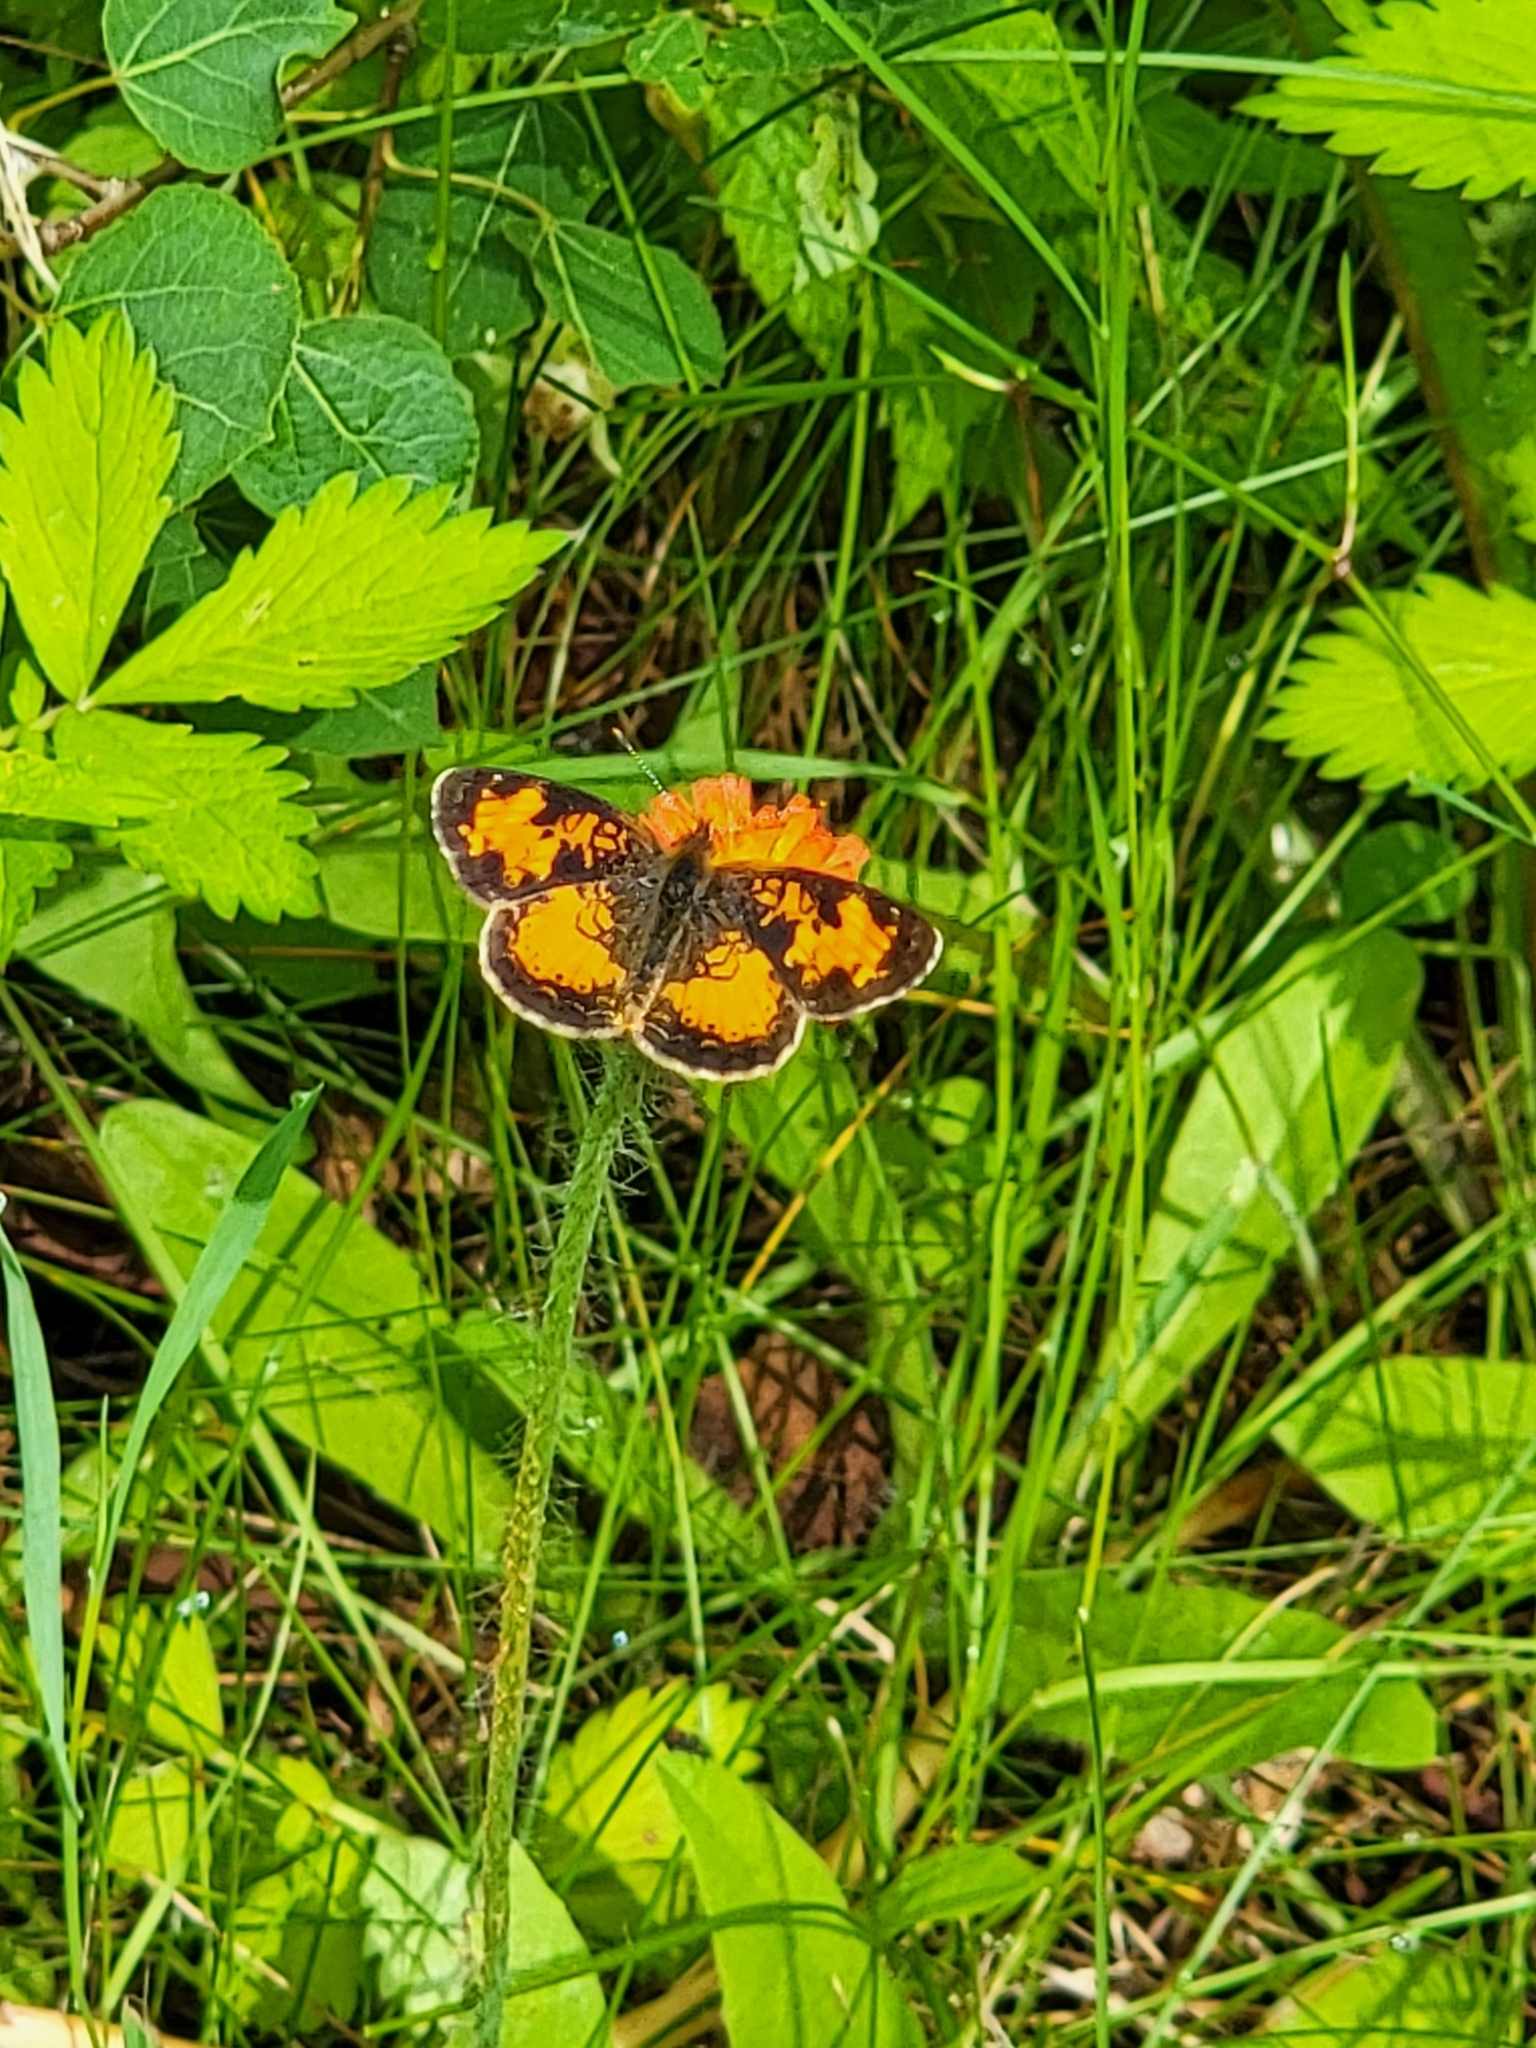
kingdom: Animalia
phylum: Arthropoda
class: Insecta
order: Lepidoptera
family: Nymphalidae
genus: Phyciodes
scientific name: Phyciodes tharos
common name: Pearl crescent
